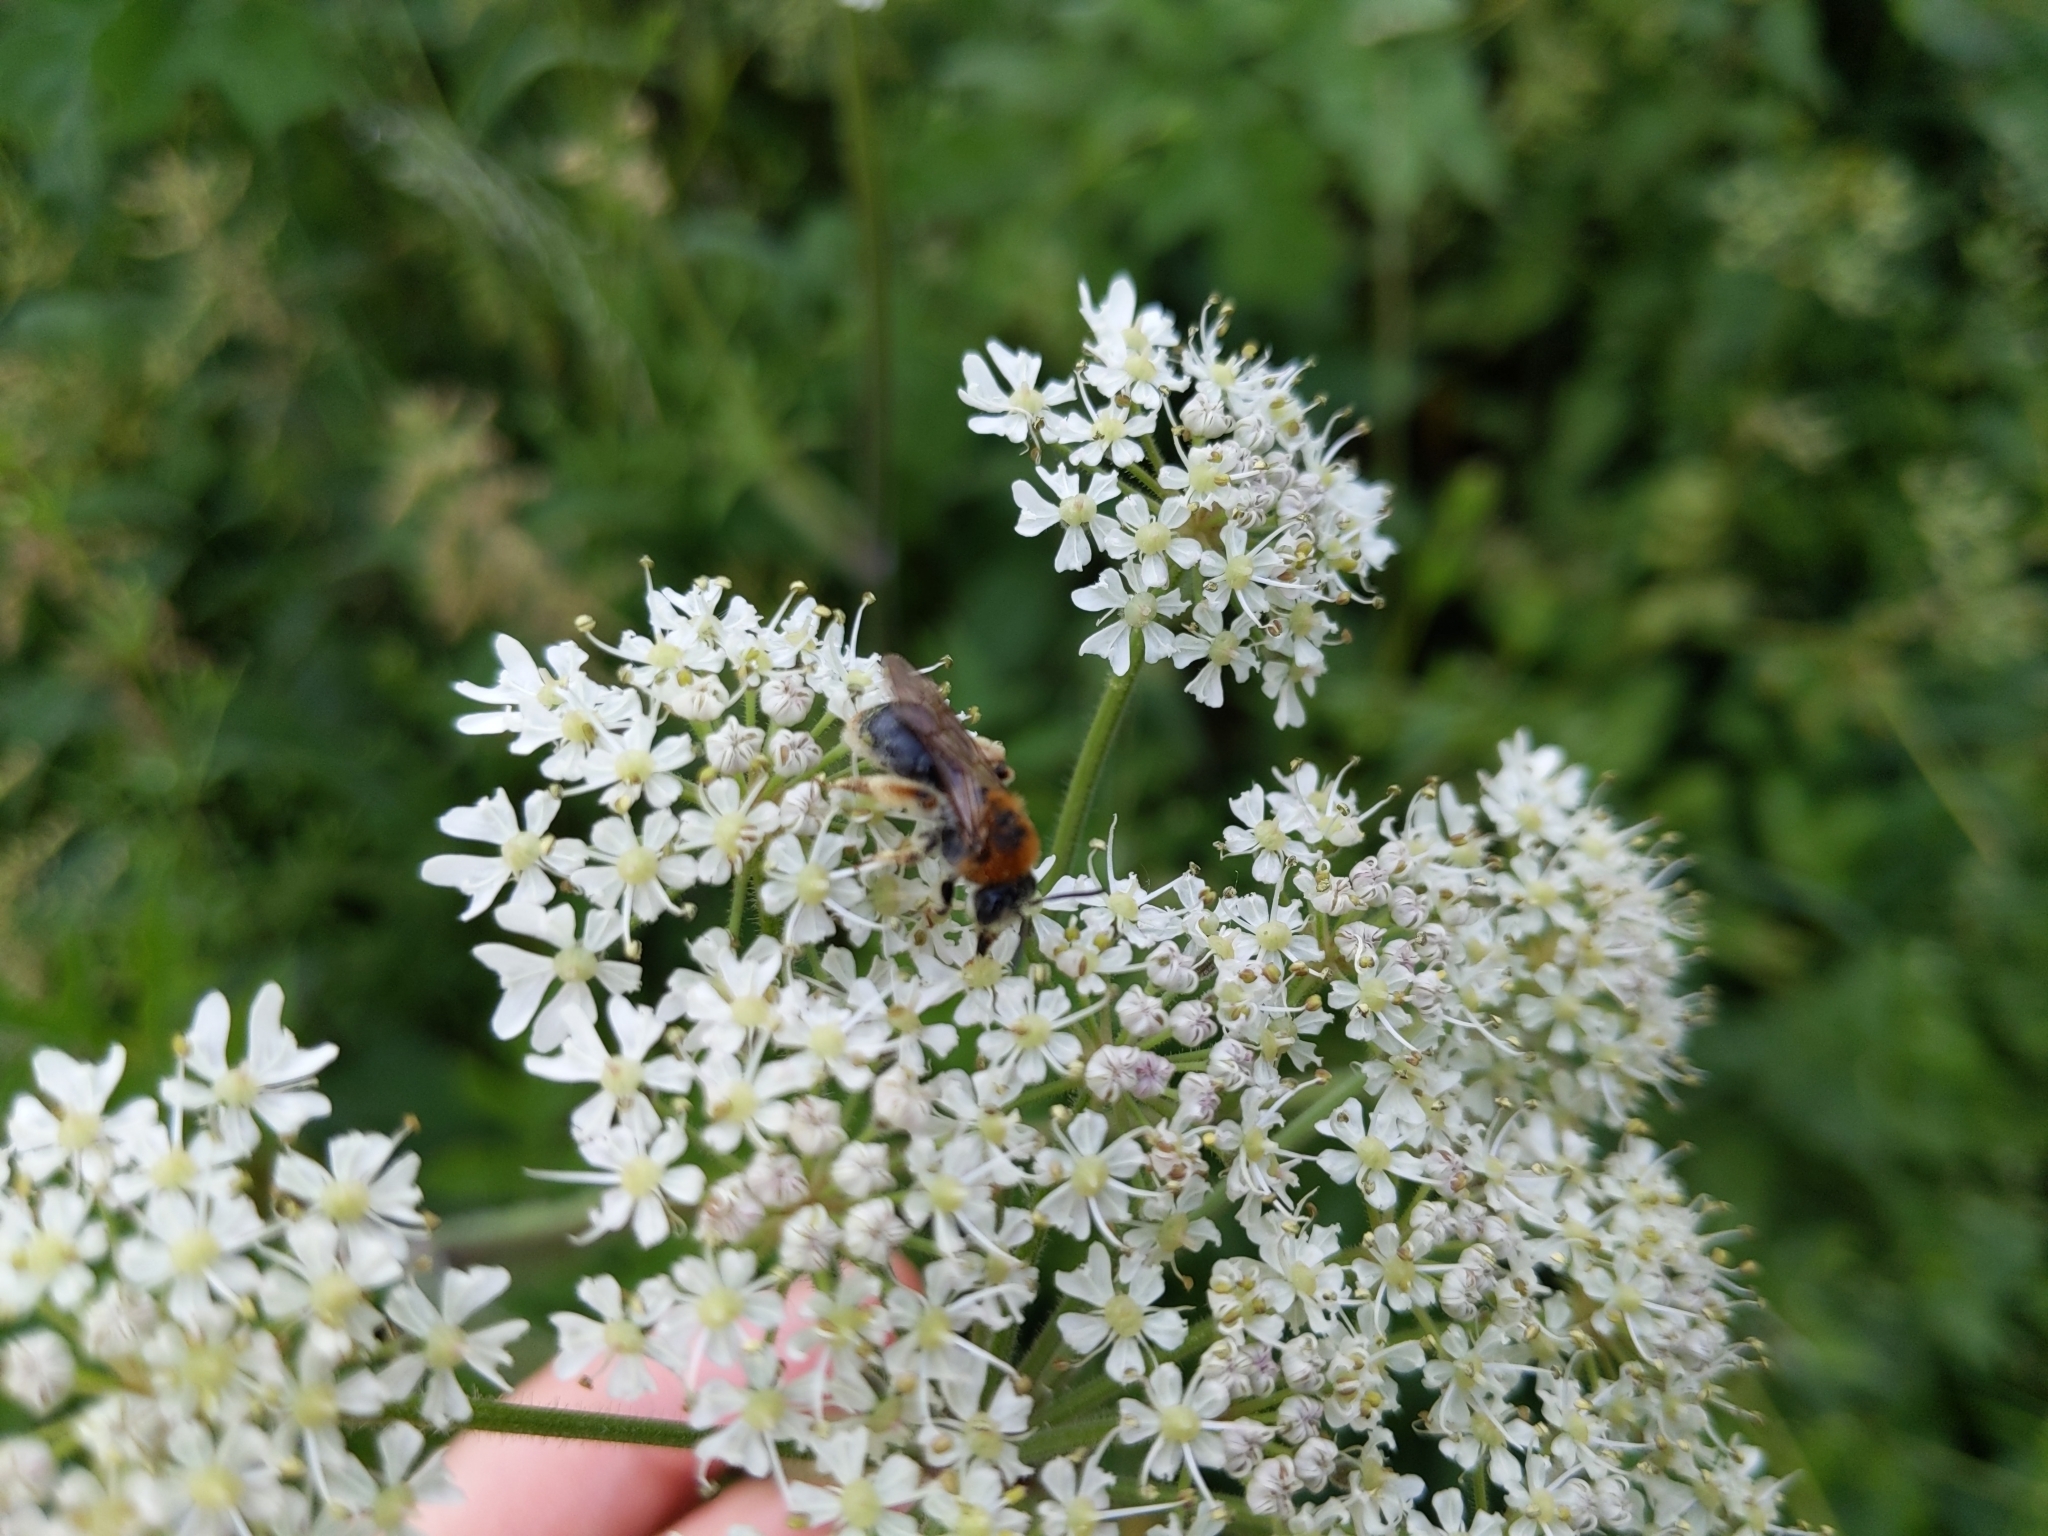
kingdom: Animalia
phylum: Arthropoda
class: Insecta
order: Hymenoptera
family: Andrenidae
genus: Andrena
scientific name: Andrena haemorrhoa
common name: Early mining bee
